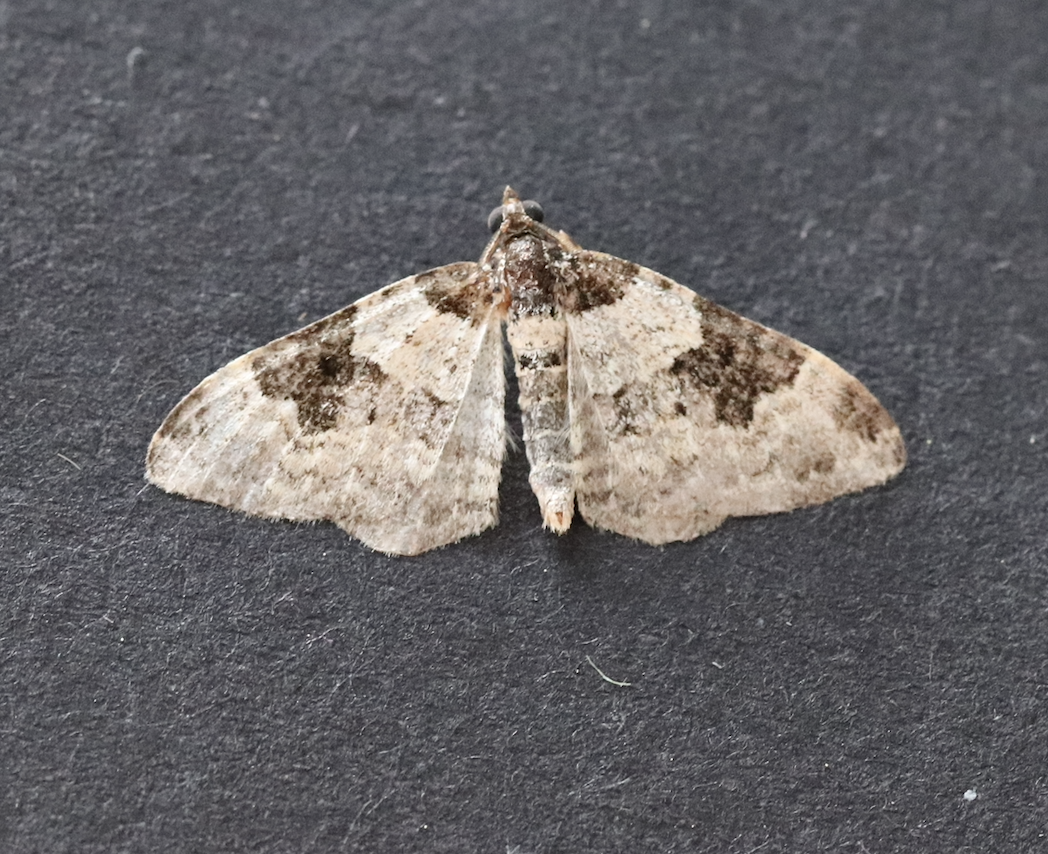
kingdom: Animalia
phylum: Arthropoda
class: Insecta
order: Lepidoptera
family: Geometridae
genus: Xanthorhoe
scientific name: Xanthorhoe fluctuata
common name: Garden carpet
